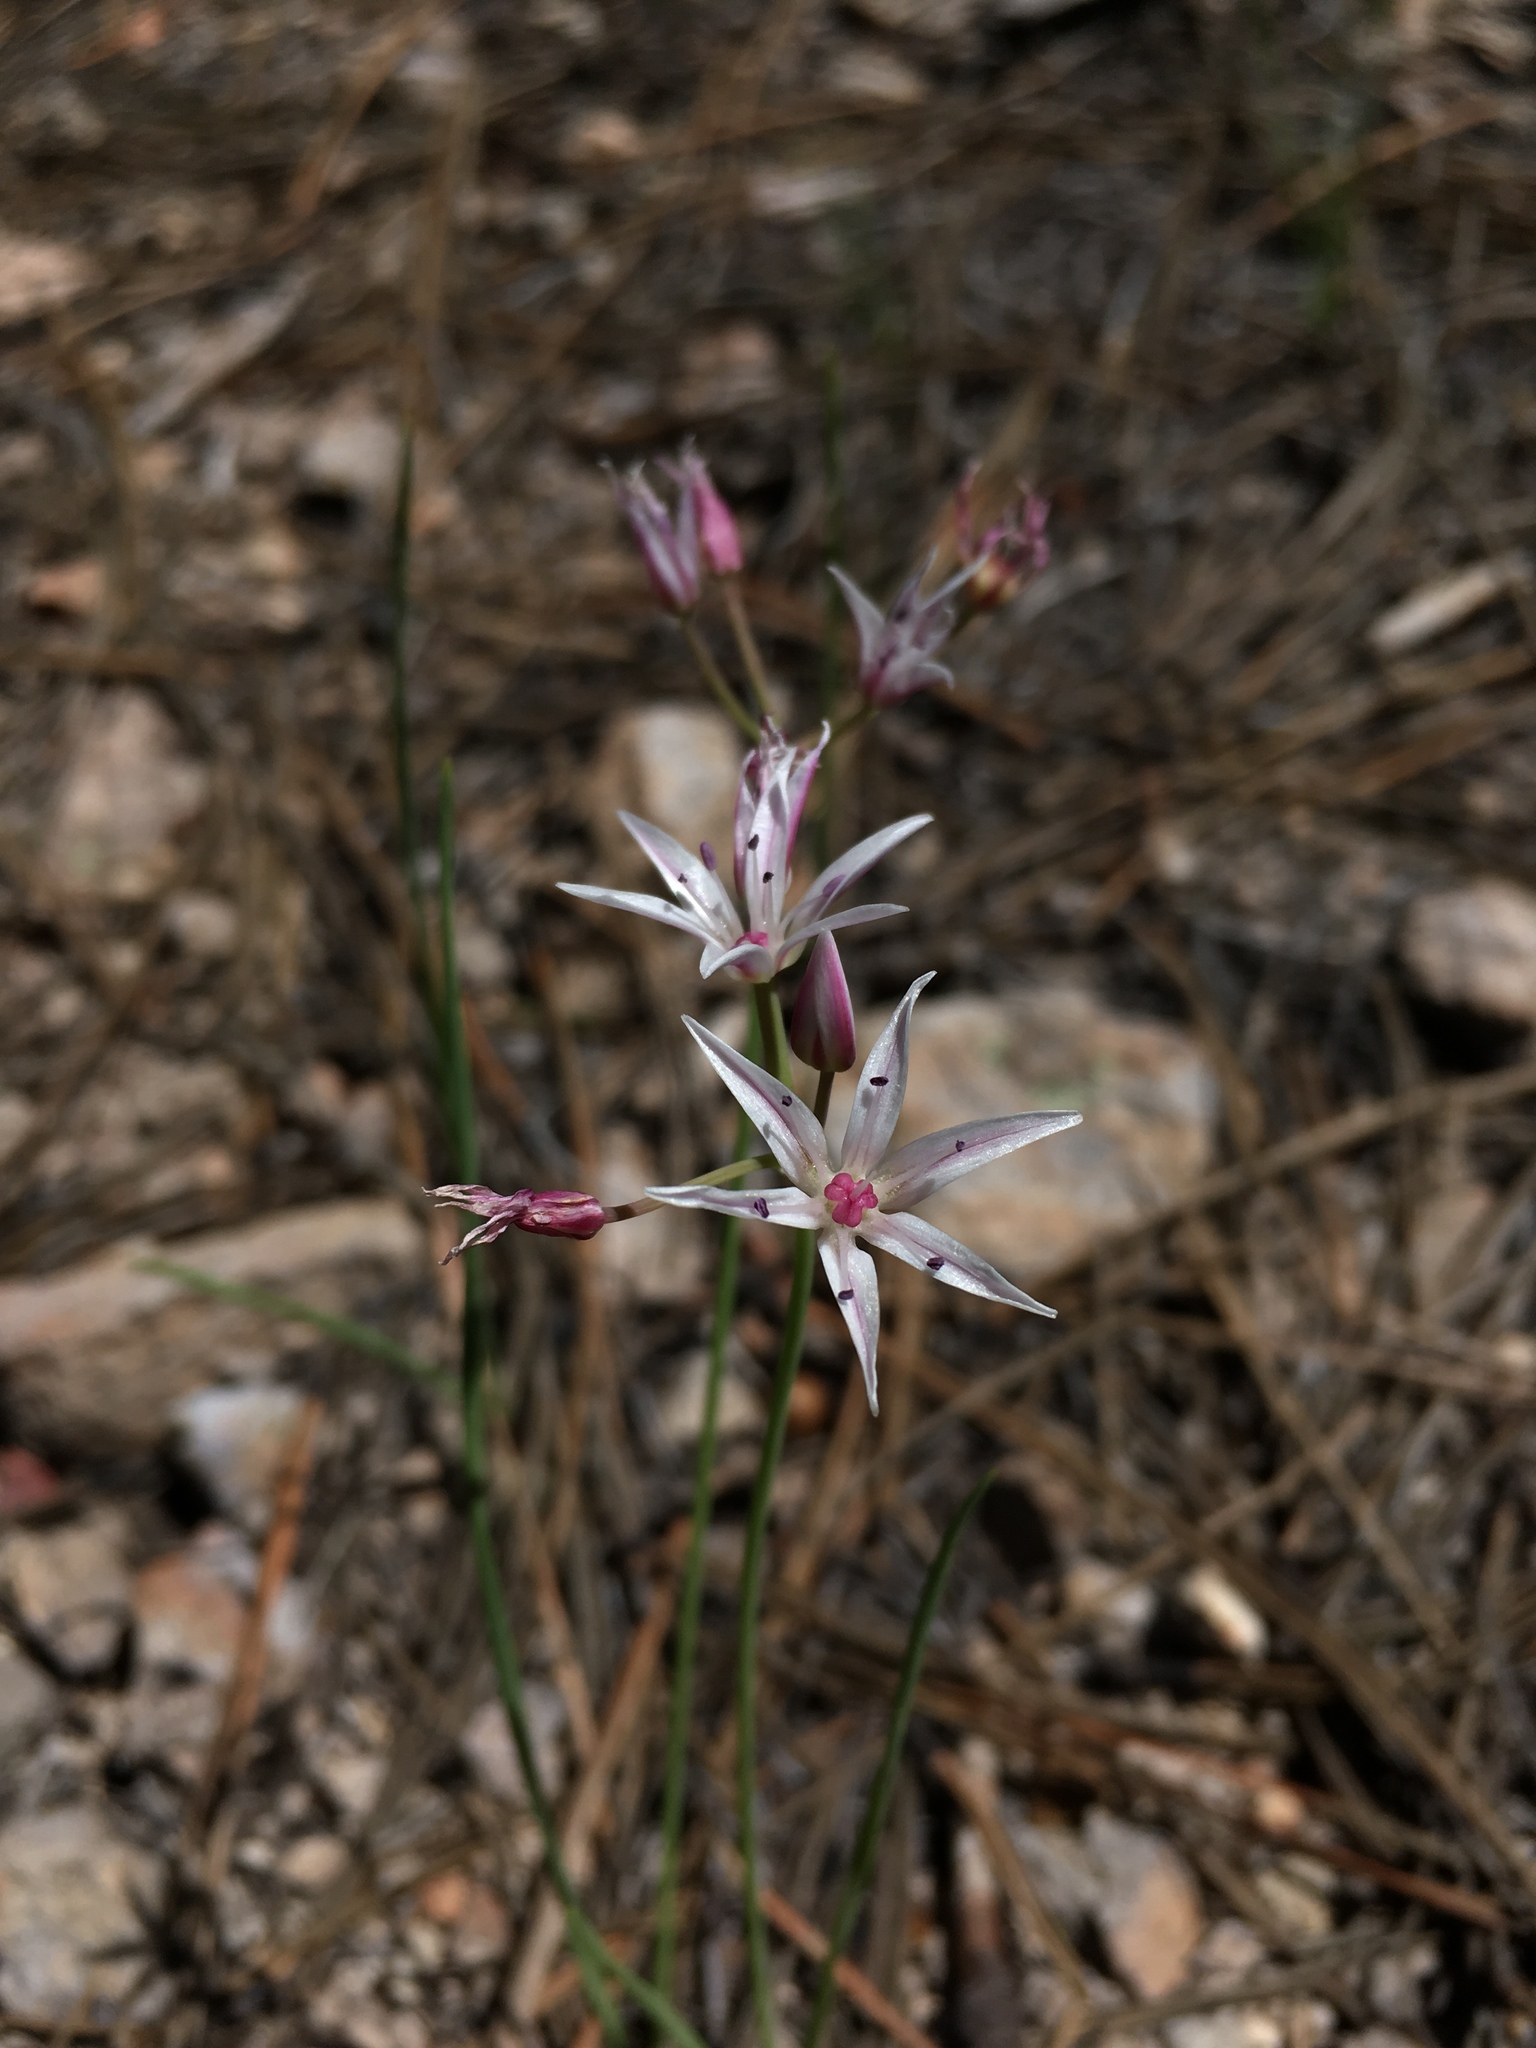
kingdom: Plantae
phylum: Tracheophyta
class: Liliopsida
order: Asparagales
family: Amaryllidaceae
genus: Allium
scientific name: Allium rhizomatum
